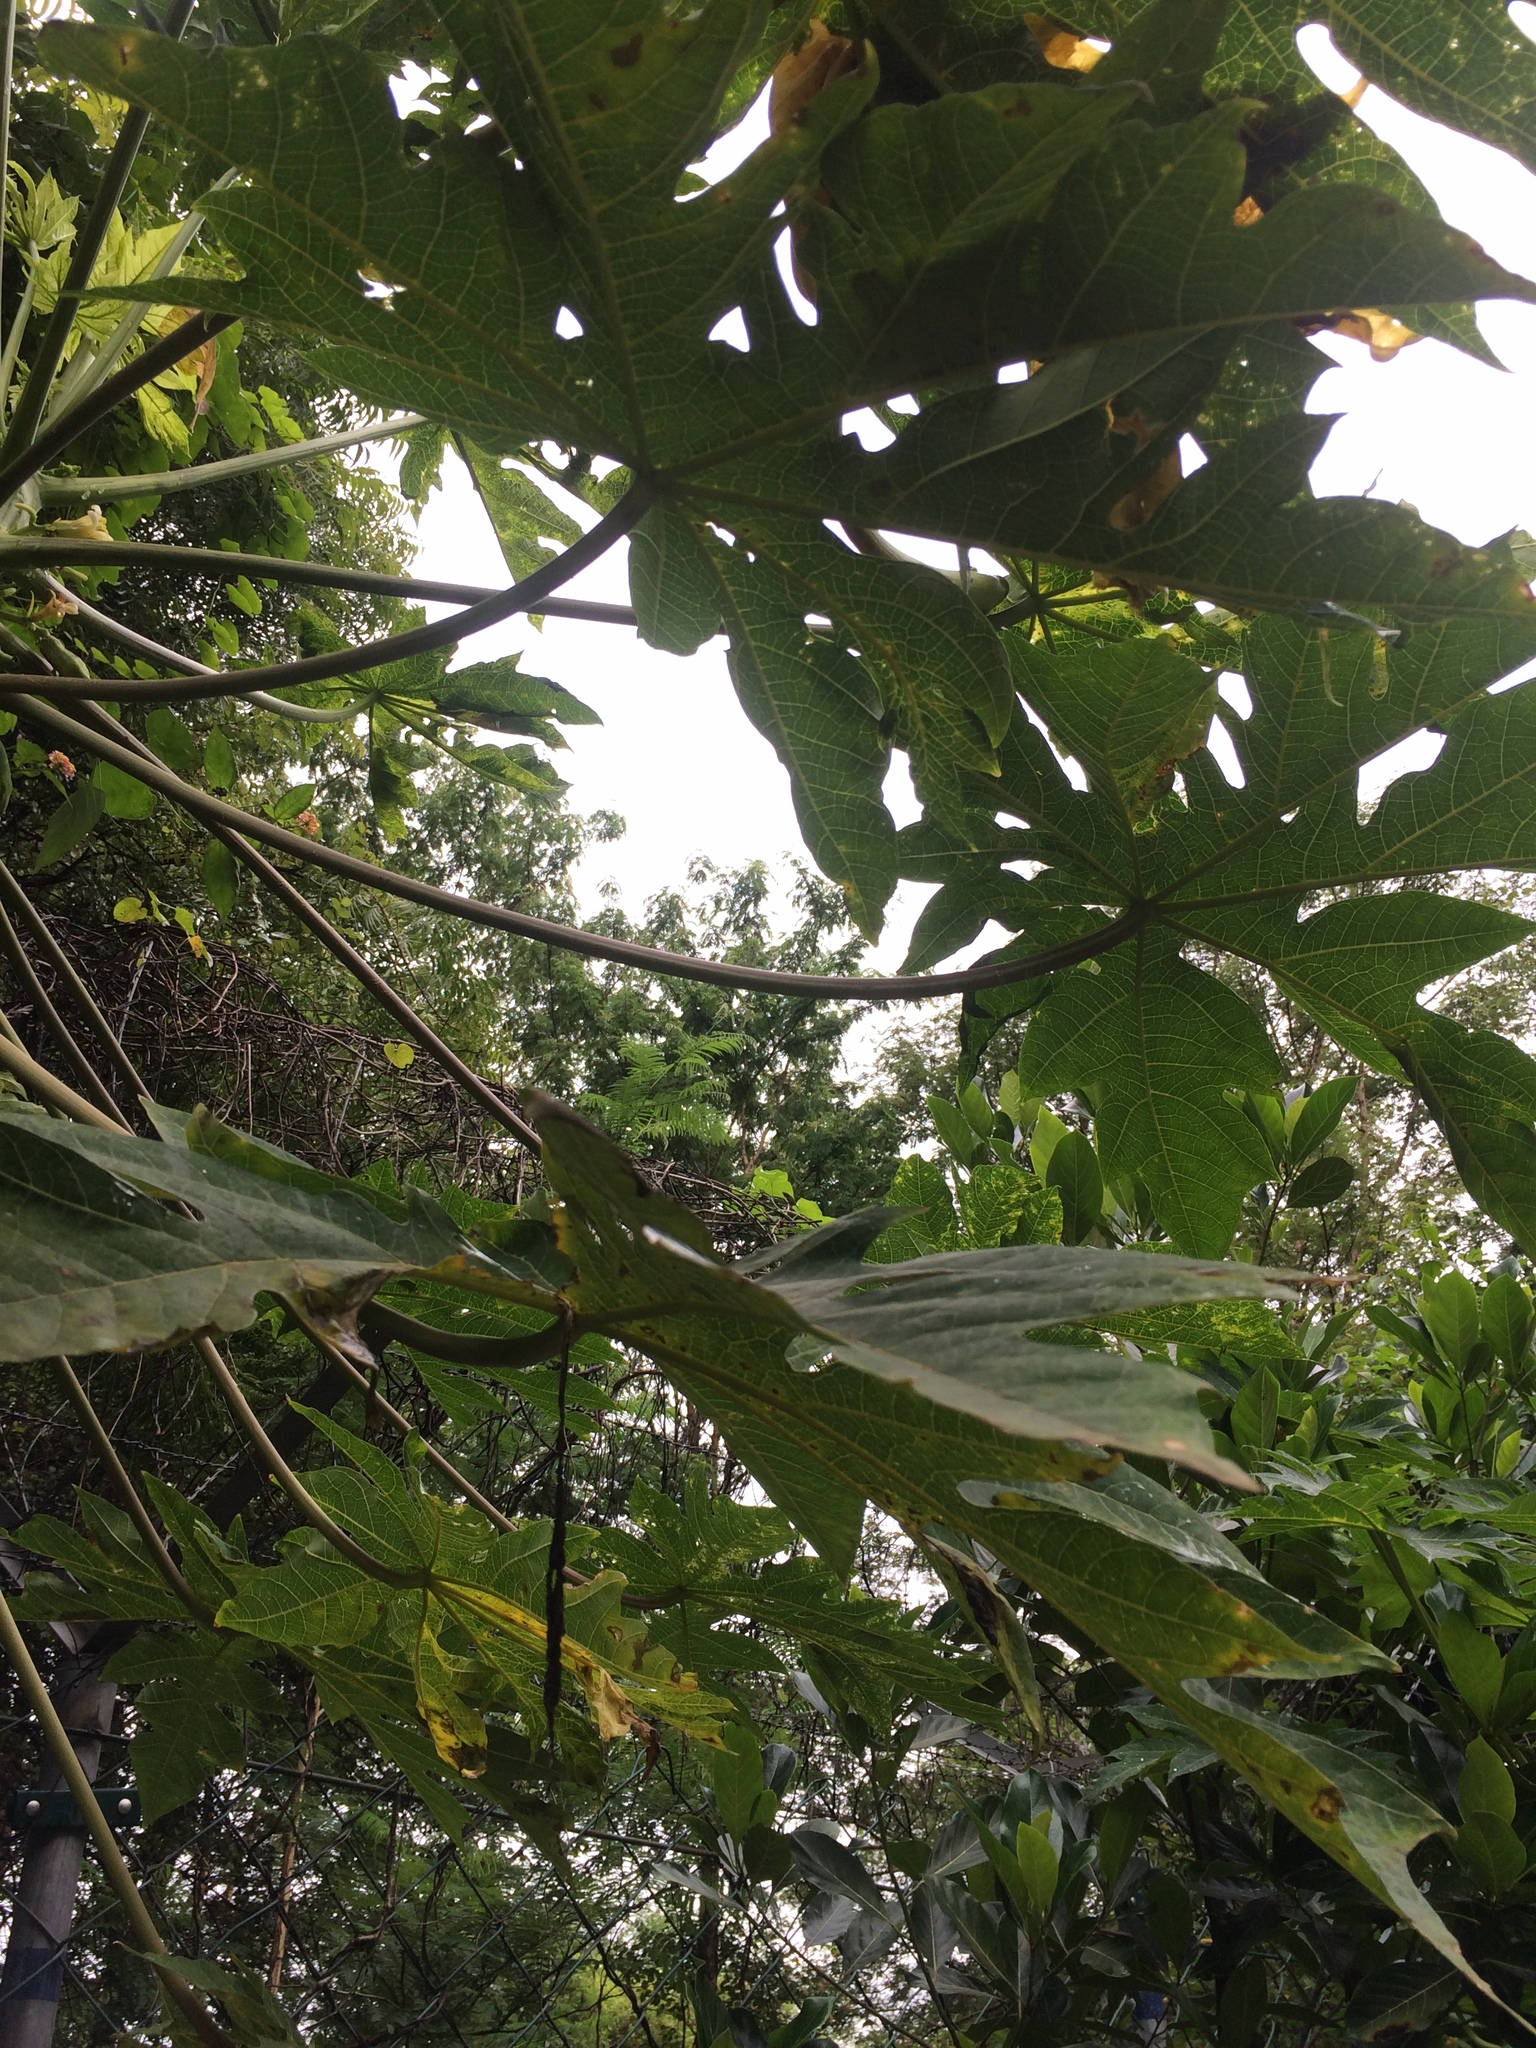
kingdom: Plantae
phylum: Tracheophyta
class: Magnoliopsida
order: Brassicales
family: Caricaceae
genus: Carica
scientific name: Carica papaya
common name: Papaya
